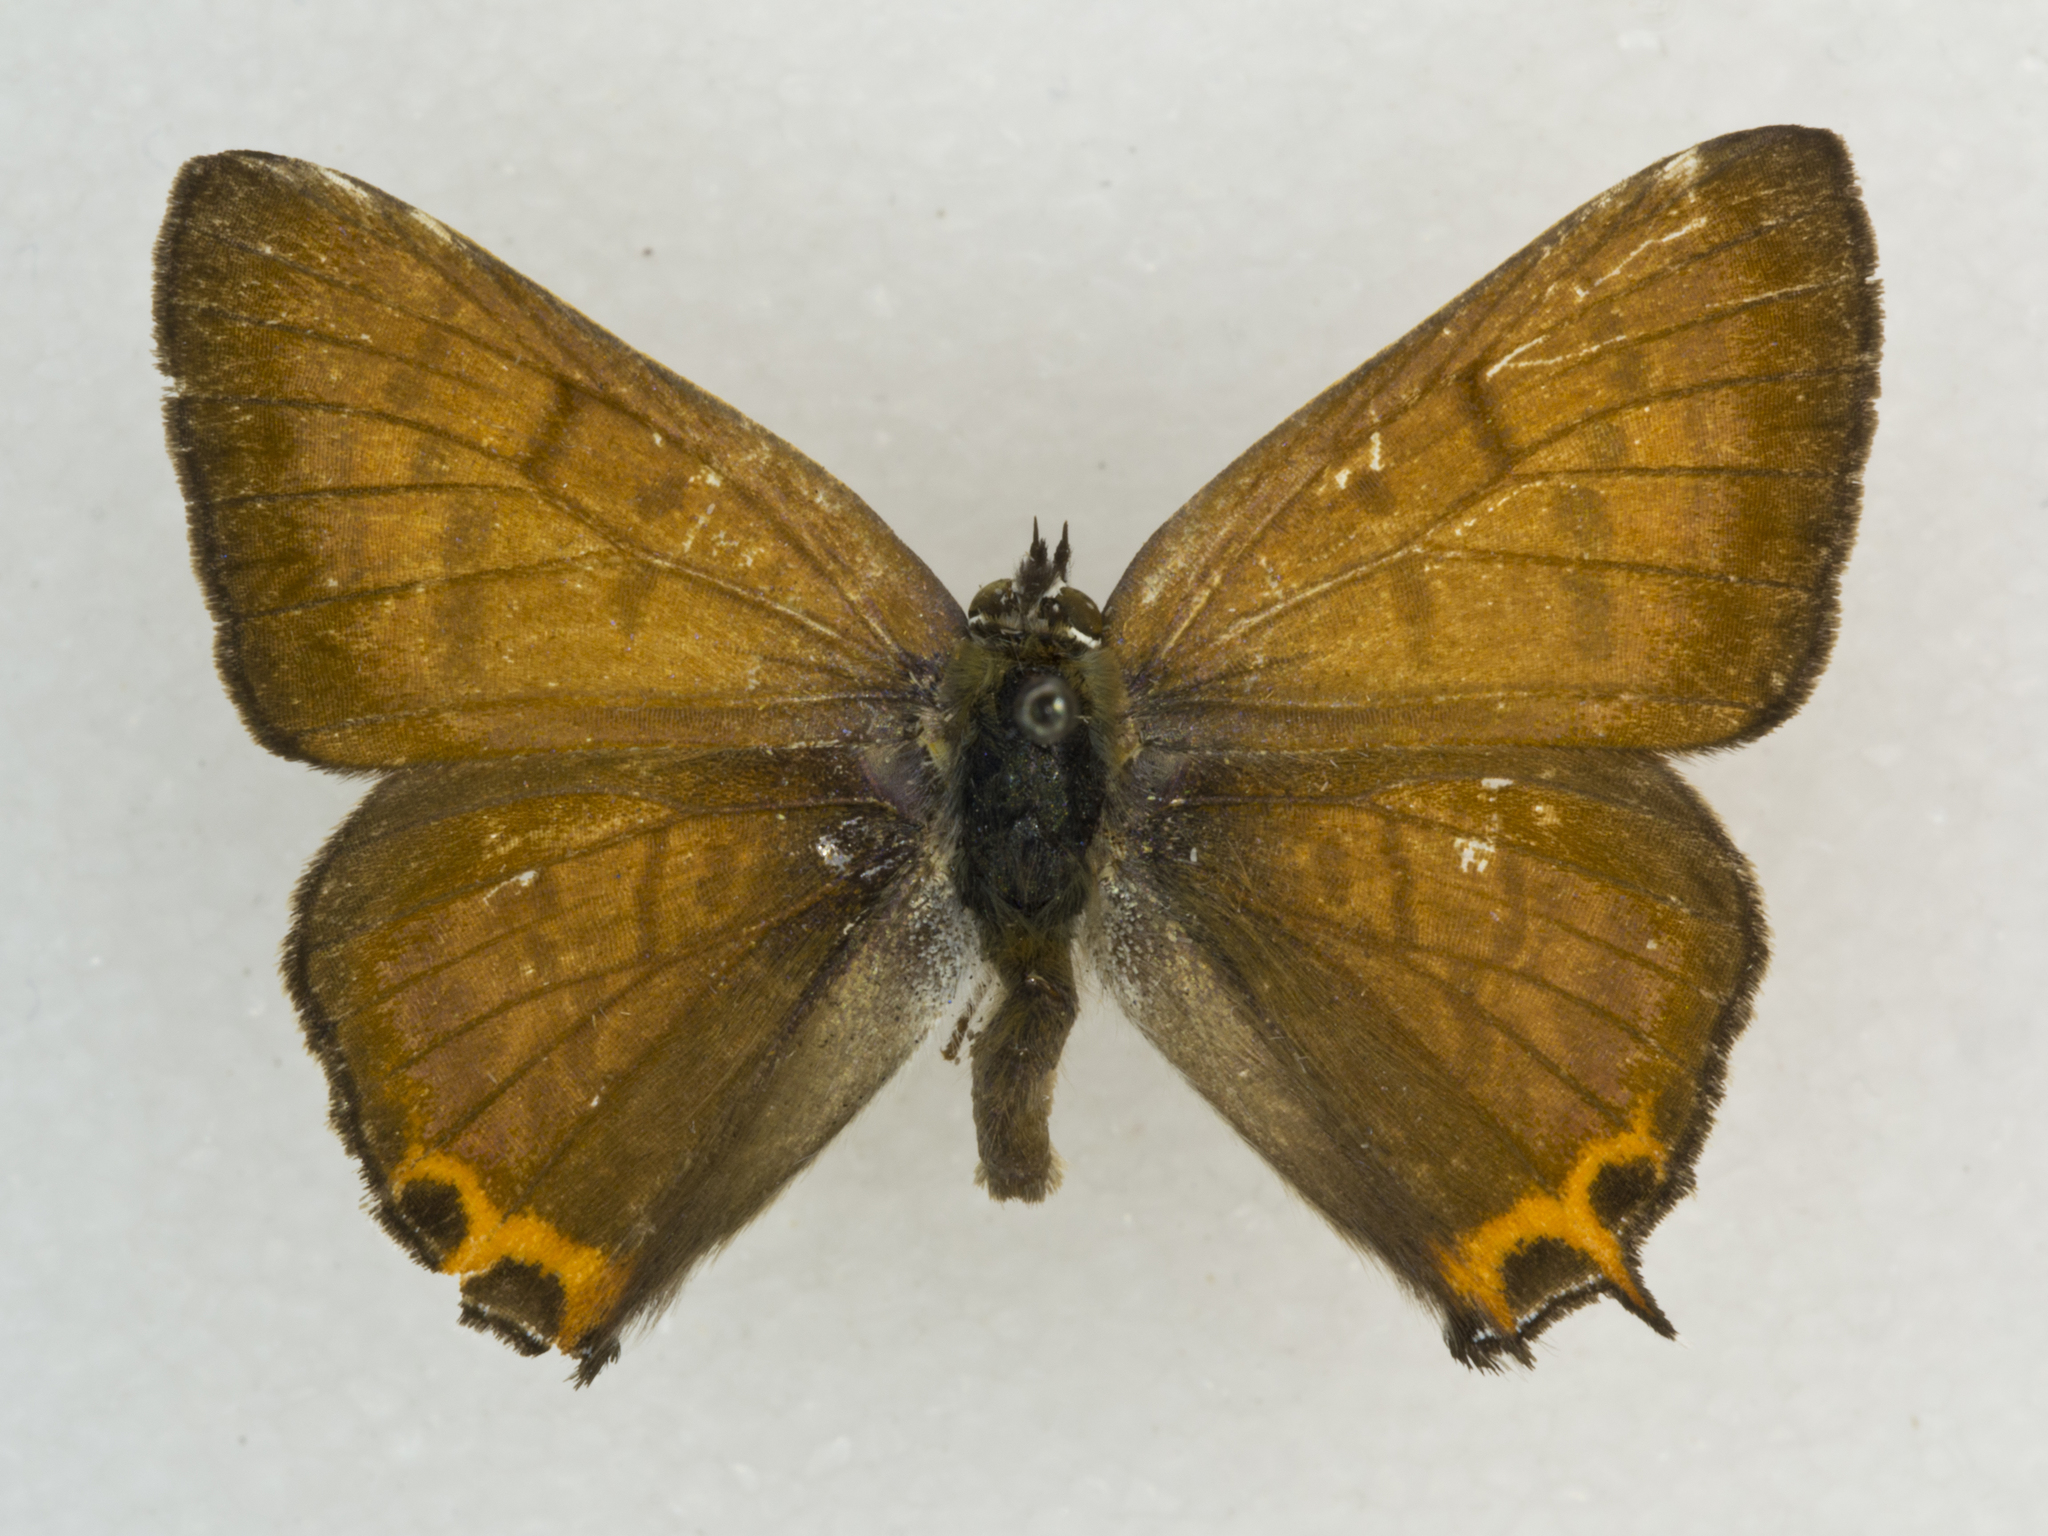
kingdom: Animalia
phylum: Arthropoda
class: Insecta
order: Lepidoptera
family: Lycaenidae
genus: Tharsalea
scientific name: Tharsalea arota
